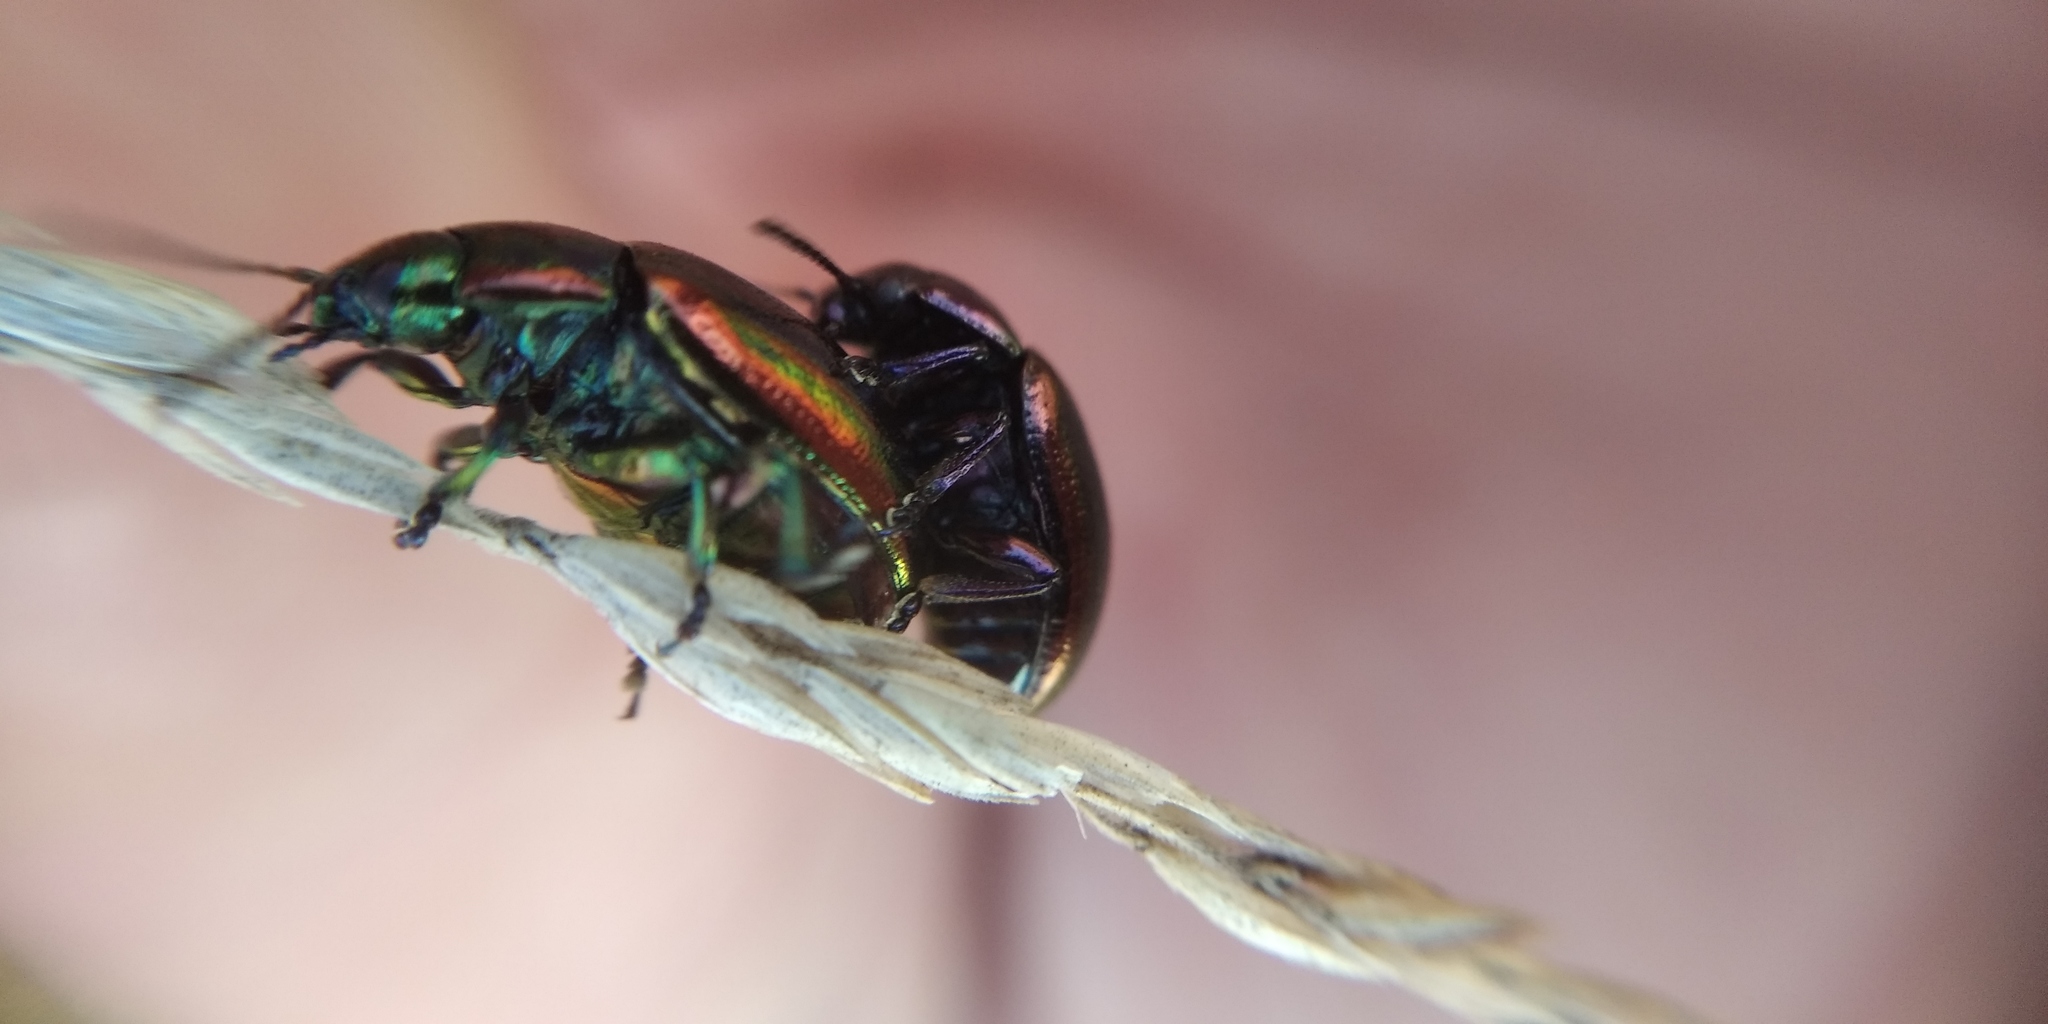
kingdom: Animalia
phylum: Arthropoda
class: Insecta
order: Coleoptera
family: Chrysomelidae
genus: Chrysolina
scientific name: Chrysolina cerealis
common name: Rainbow leaf beetle
